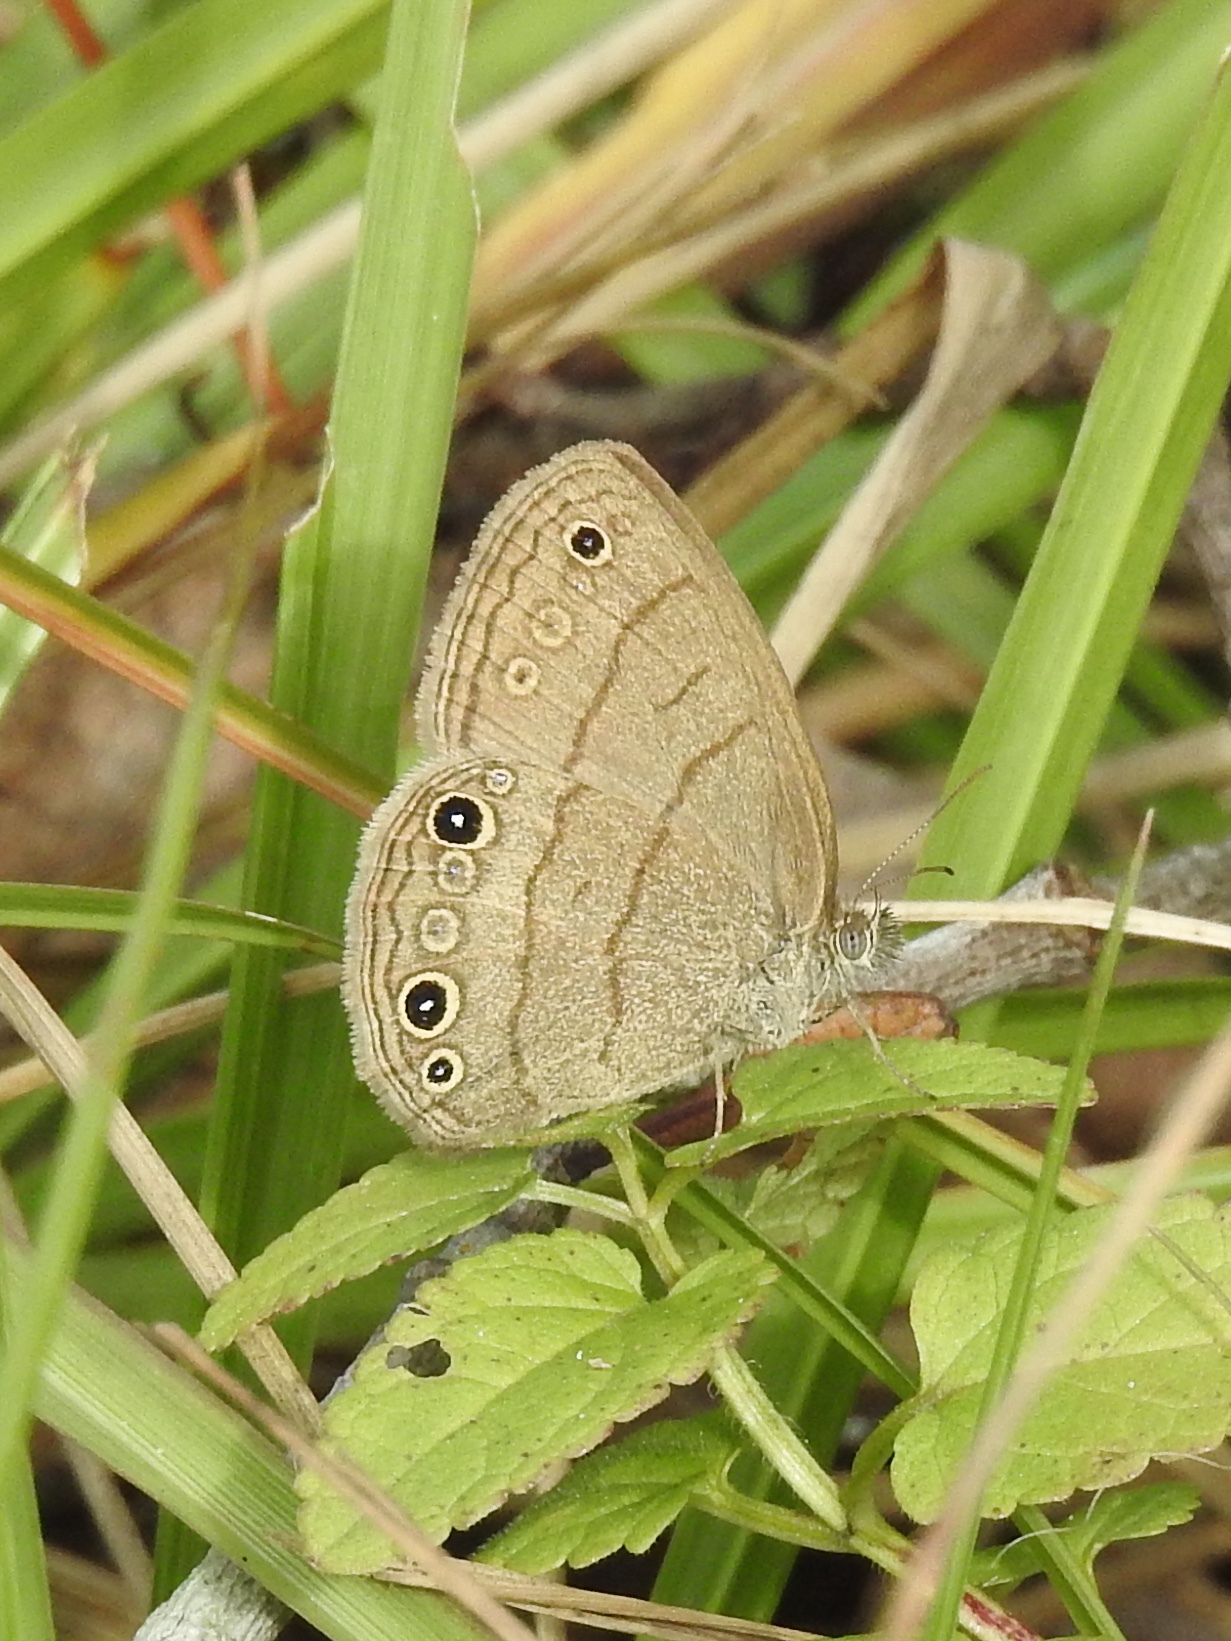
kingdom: Animalia
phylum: Arthropoda
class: Insecta
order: Lepidoptera
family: Nymphalidae
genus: Hermeuptychia
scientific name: Hermeuptychia hermes
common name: Hermes satyr
